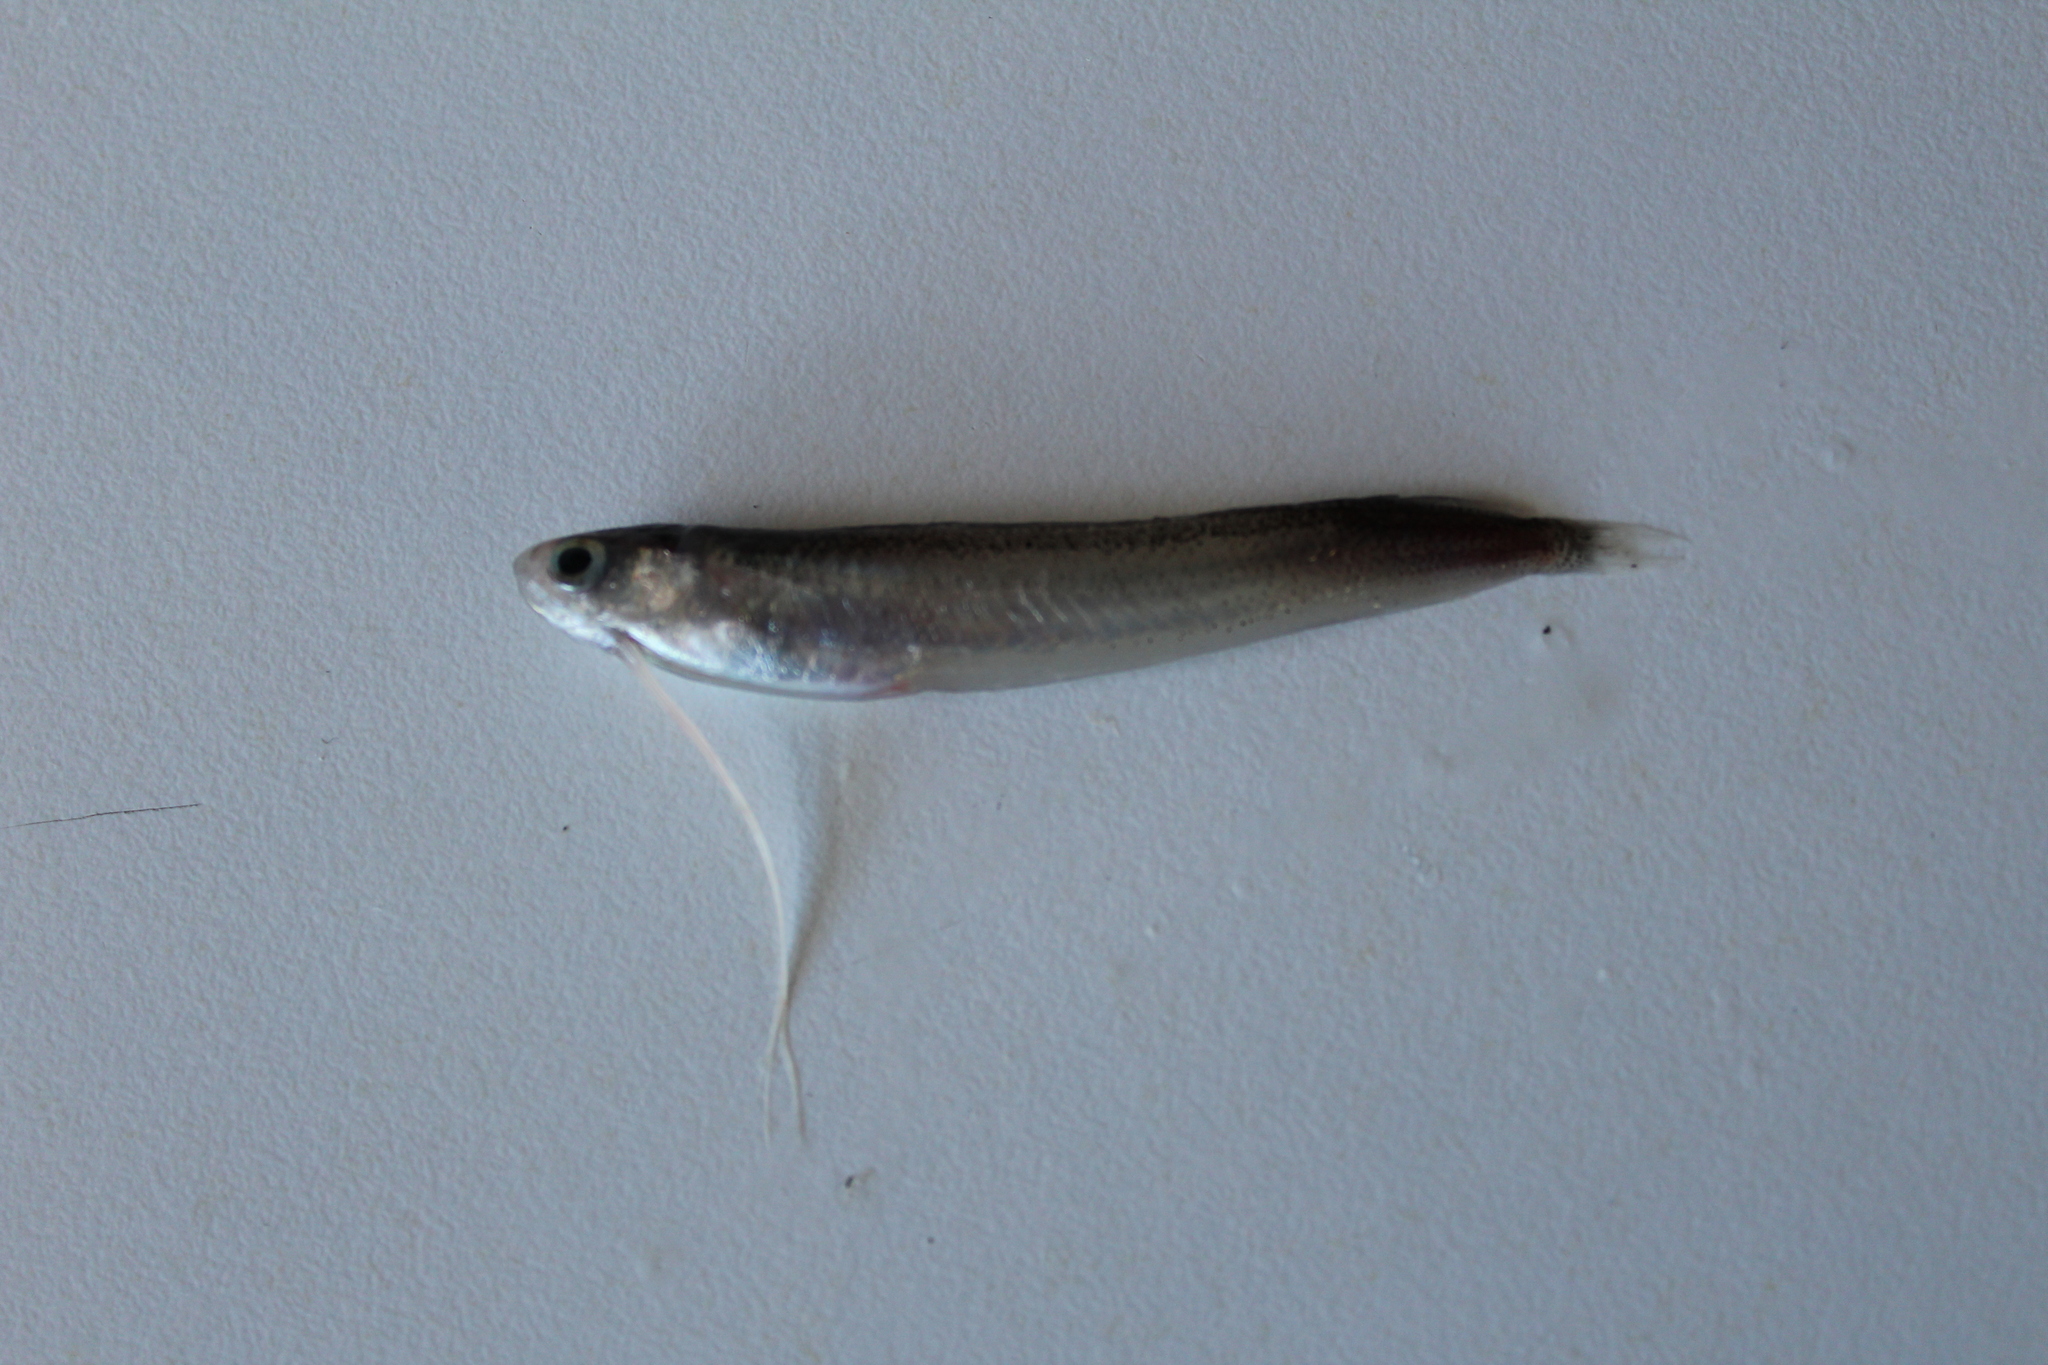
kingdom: Animalia
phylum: Chordata
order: Gadiformes
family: Bregmacerotidae
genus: Bregmaceros
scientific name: Bregmaceros nectabanus
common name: Australian unicorn-cod
